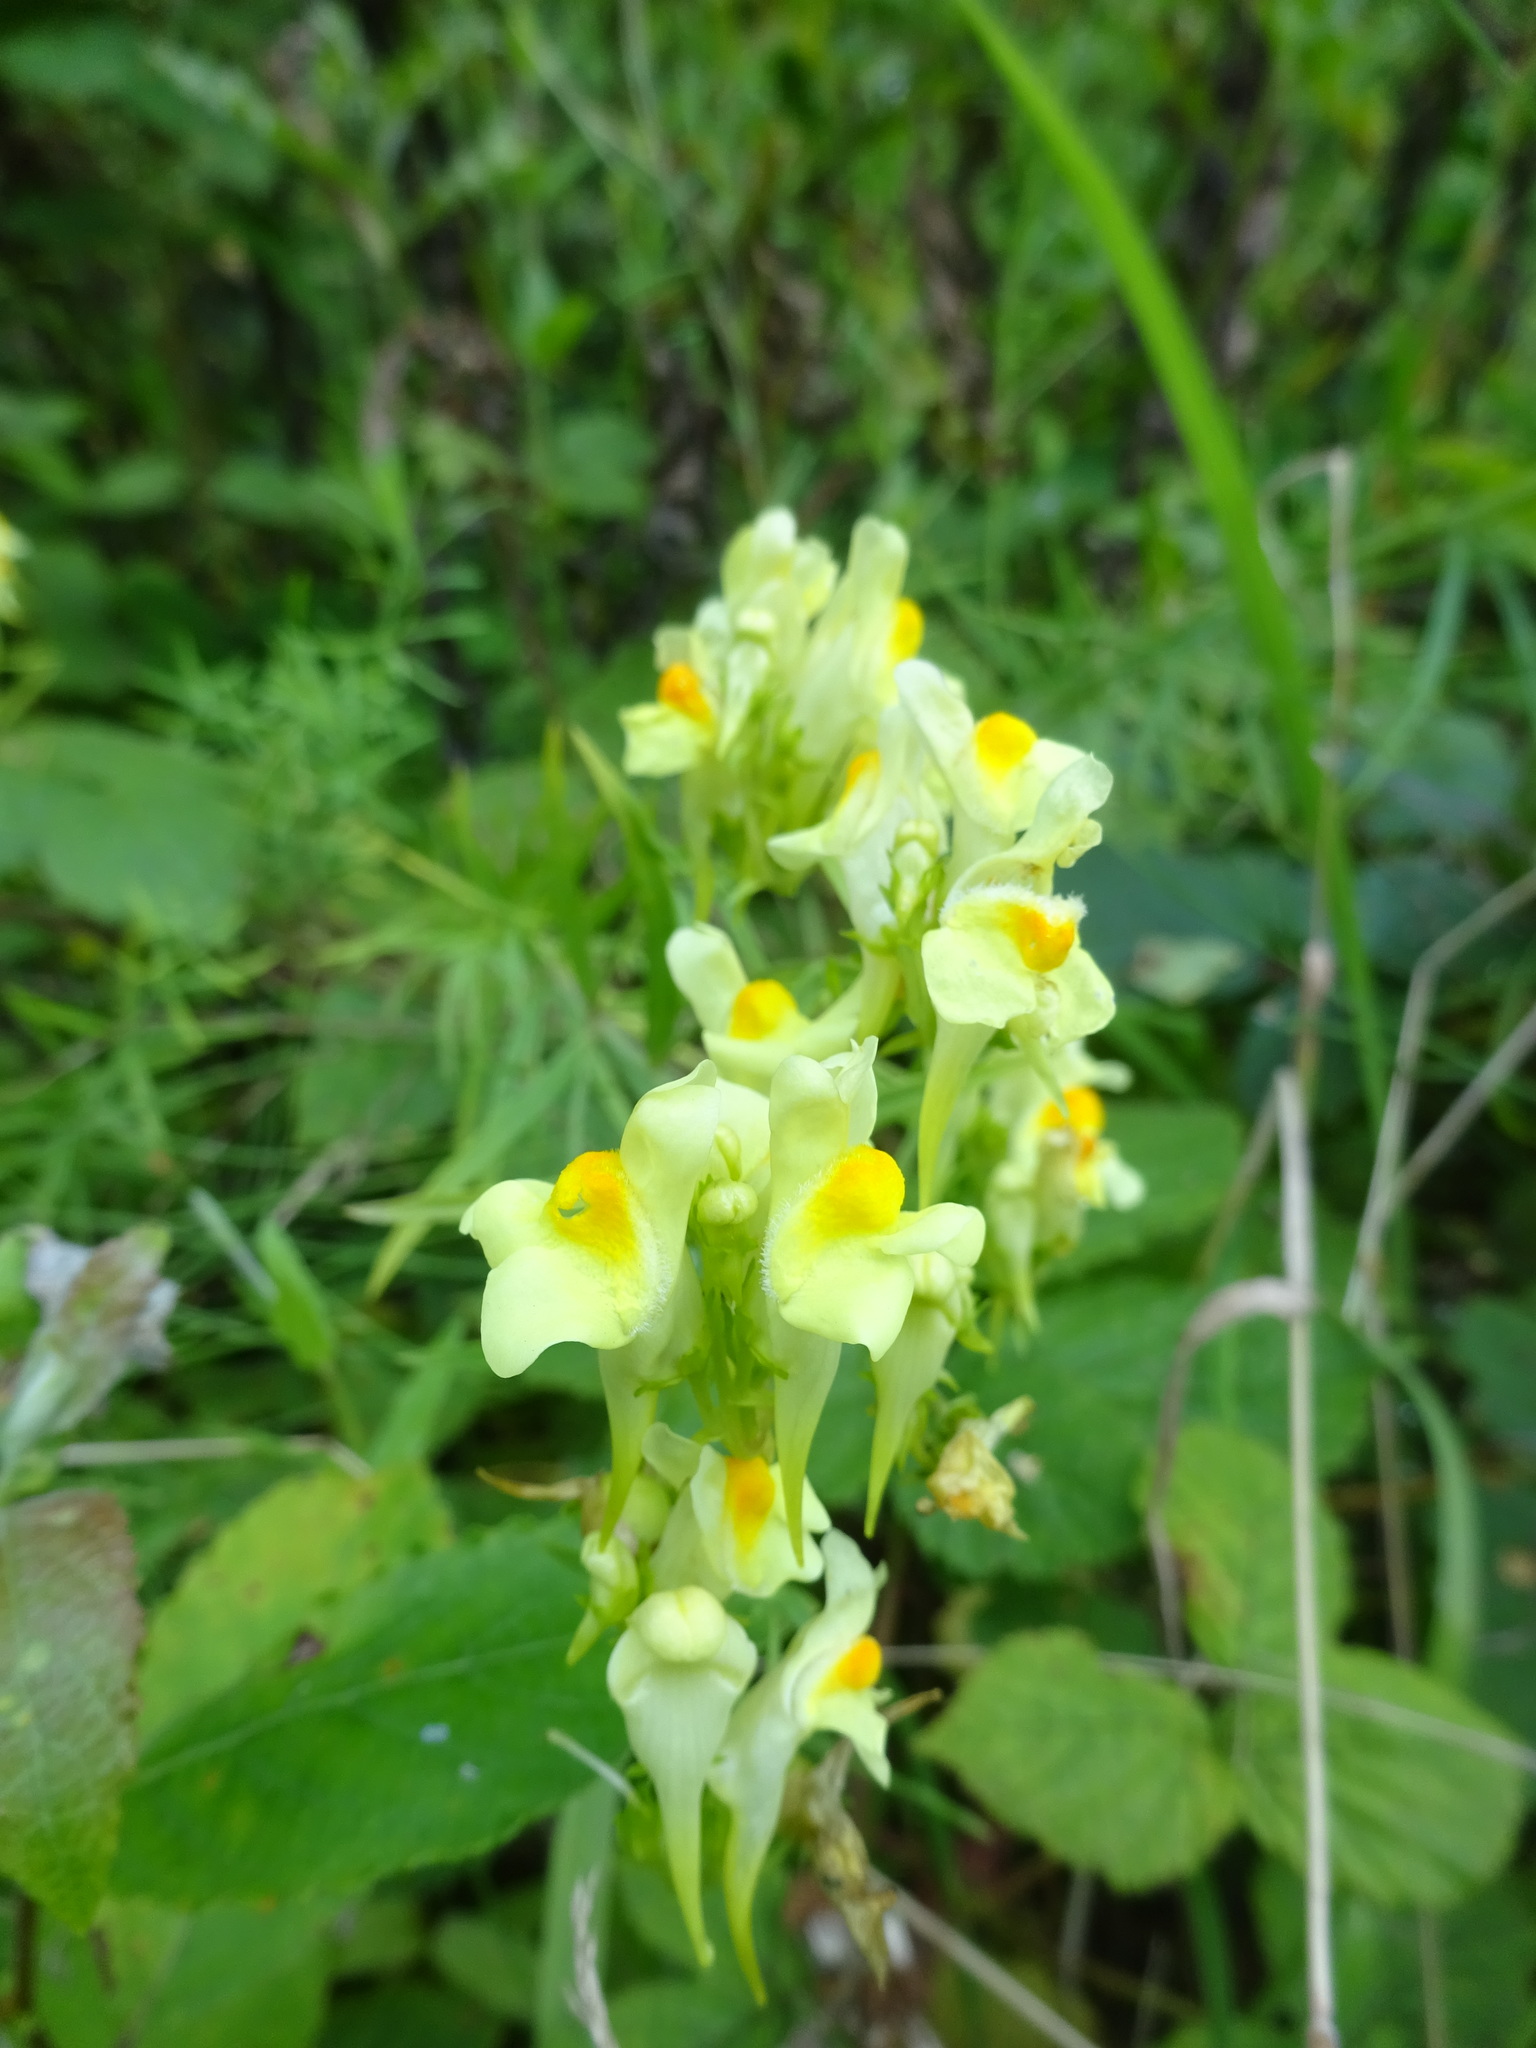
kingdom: Plantae
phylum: Tracheophyta
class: Magnoliopsida
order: Lamiales
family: Plantaginaceae
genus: Linaria
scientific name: Linaria vulgaris
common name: Butter and eggs
